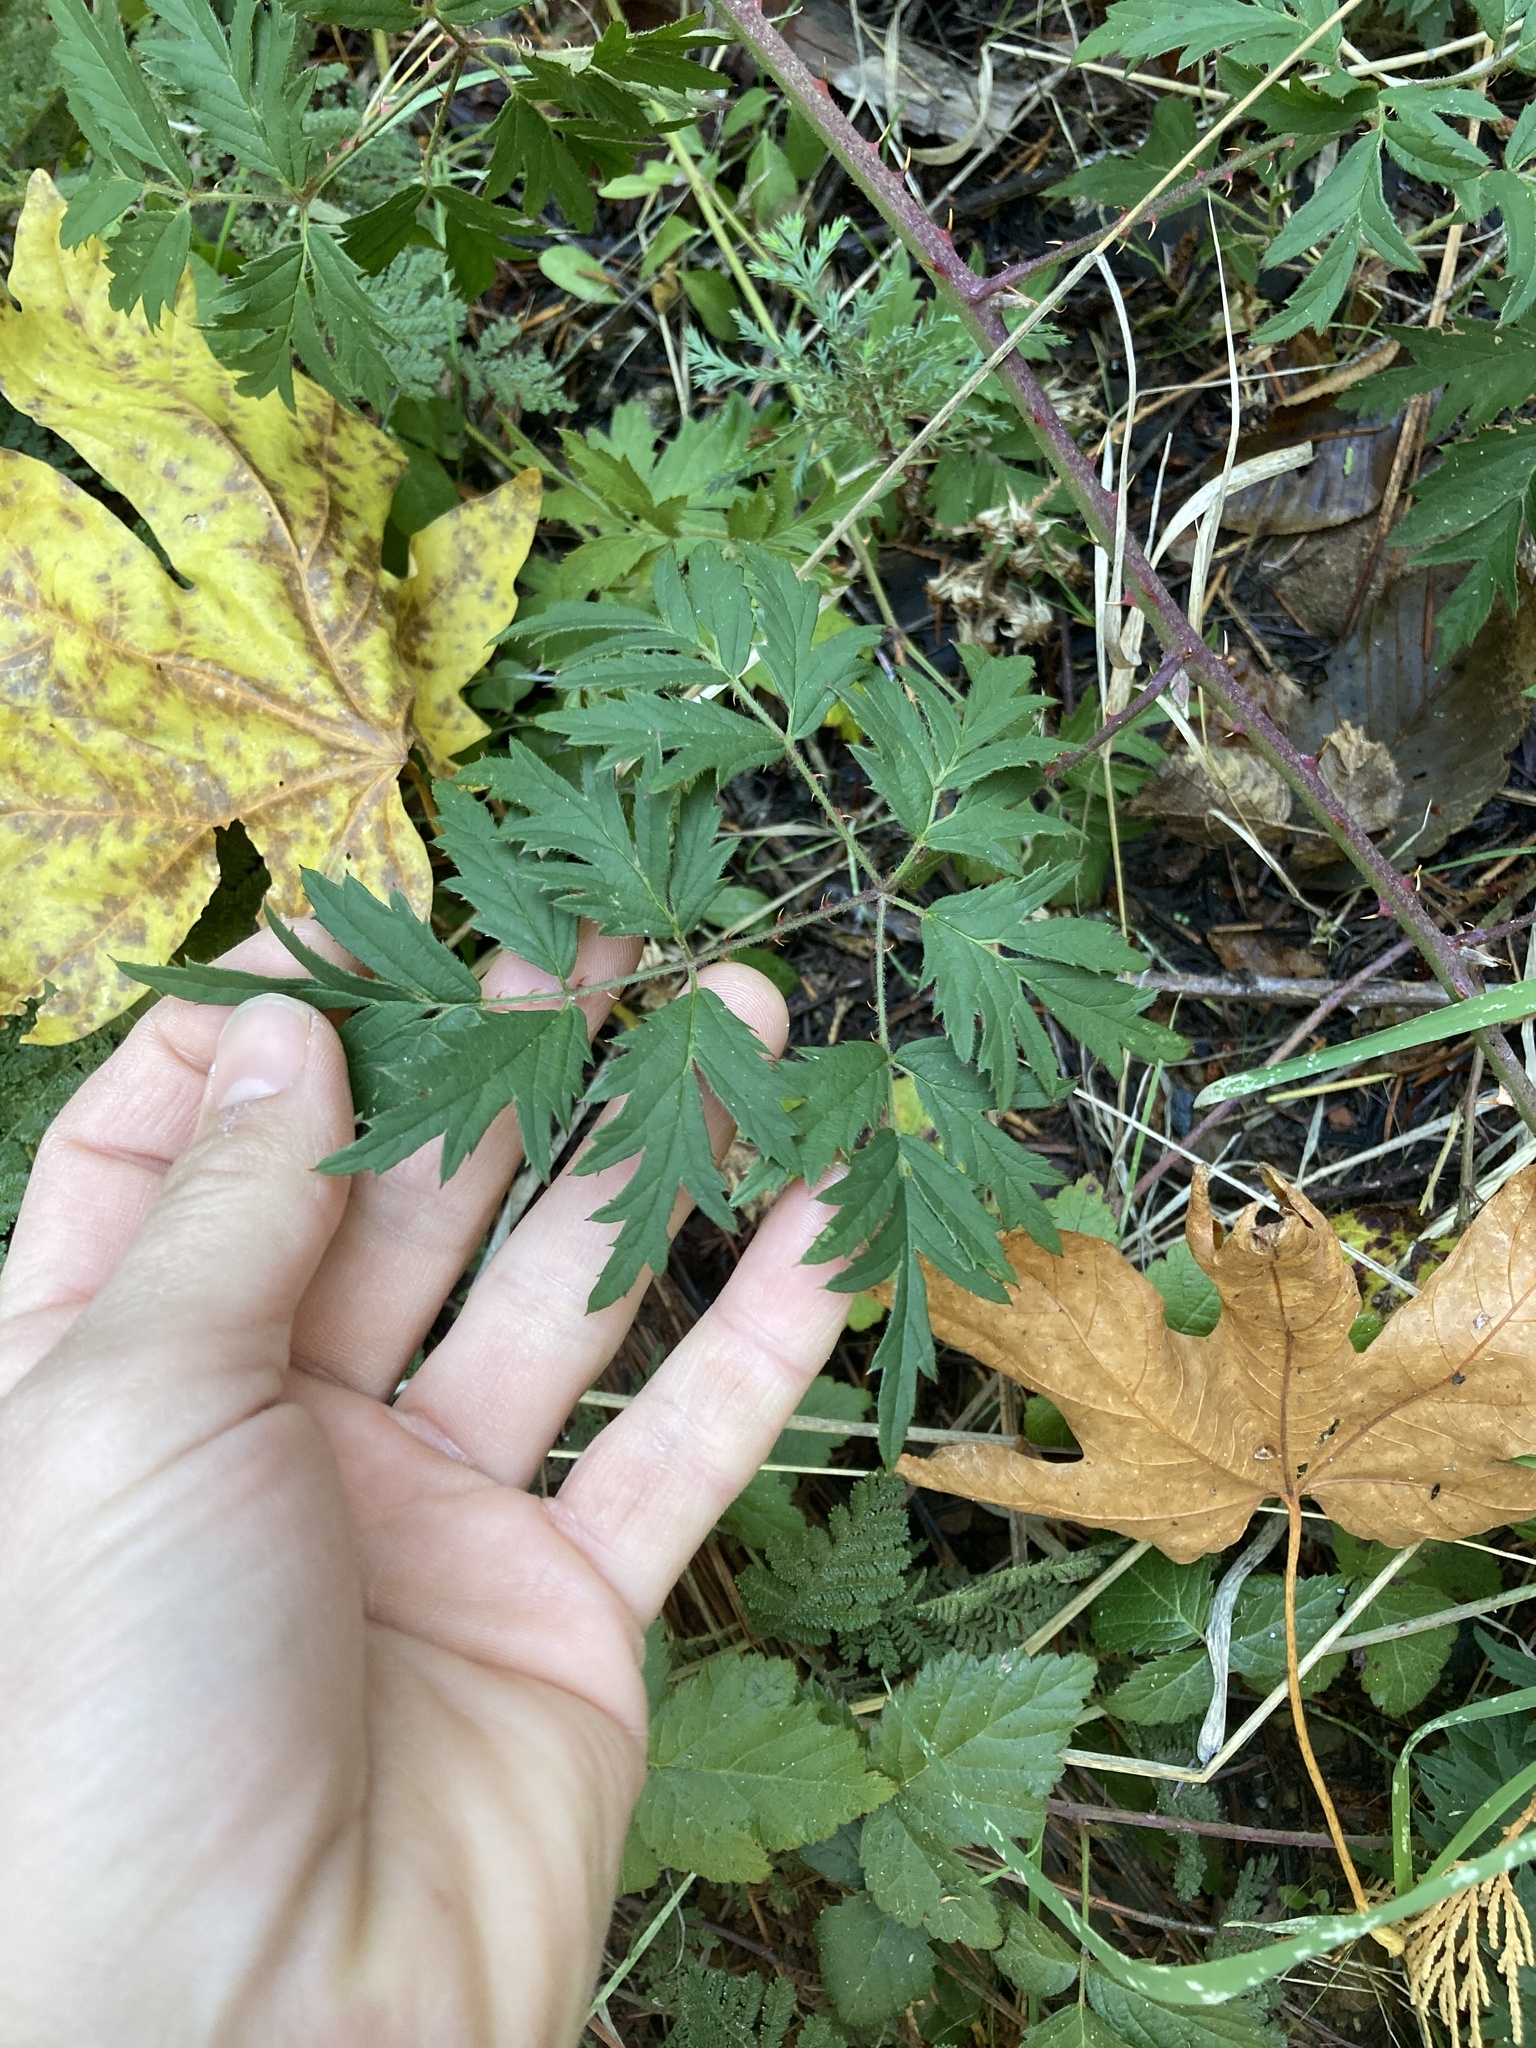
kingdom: Plantae
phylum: Tracheophyta
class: Magnoliopsida
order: Rosales
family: Rosaceae
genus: Rubus
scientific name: Rubus laciniatus
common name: Evergreen blackberry
